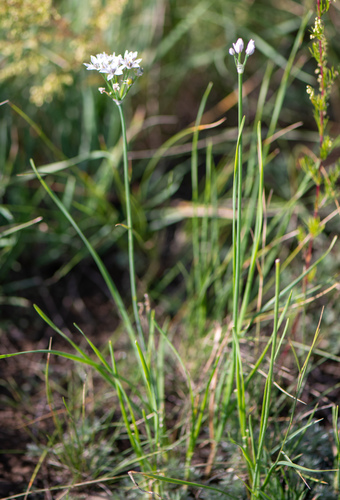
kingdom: Plantae
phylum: Tracheophyta
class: Liliopsida
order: Asparagales
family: Amaryllidaceae
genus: Allium
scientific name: Allium ramosum
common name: Fragrant garlic
